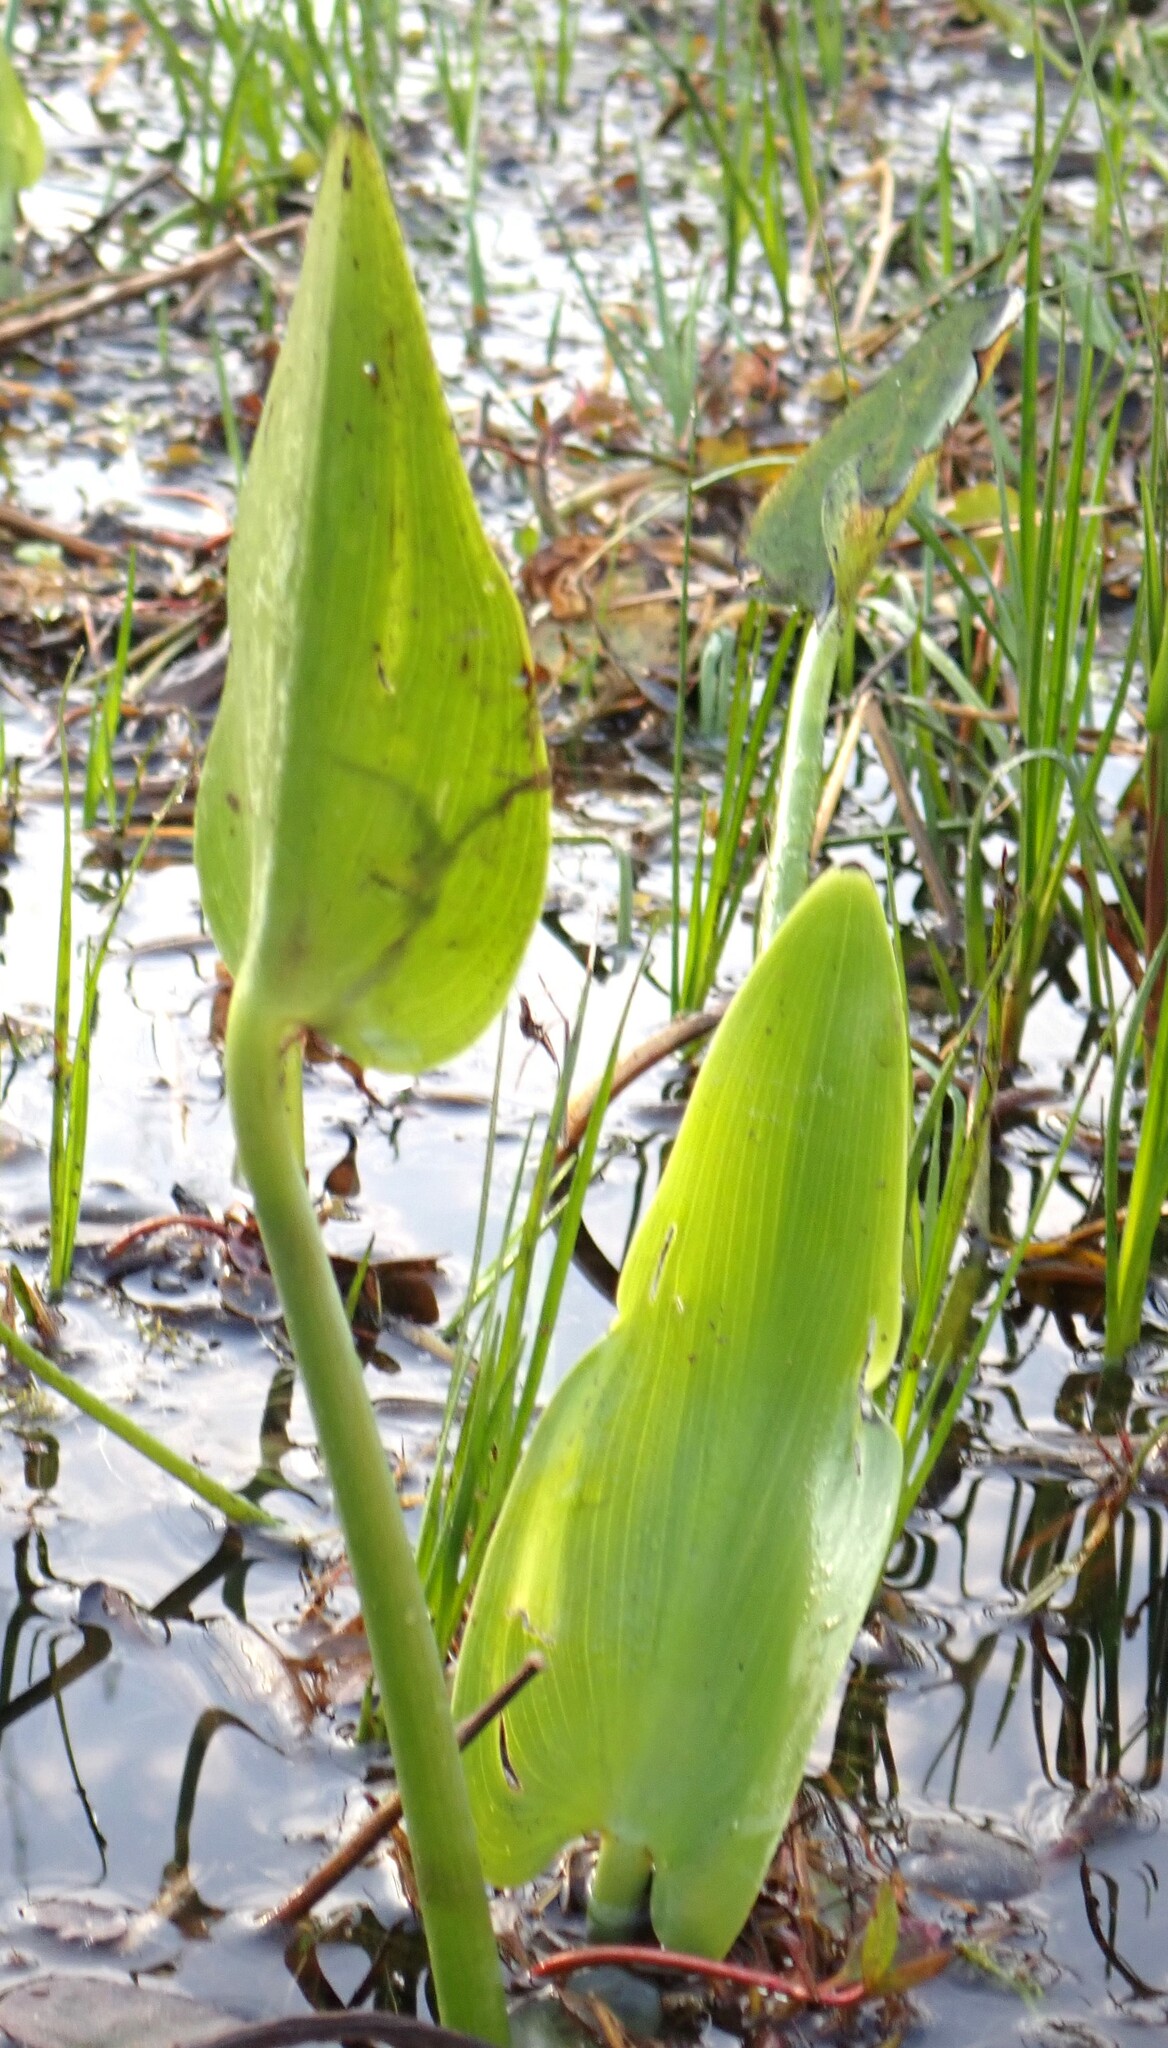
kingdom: Plantae
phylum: Tracheophyta
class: Liliopsida
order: Commelinales
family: Pontederiaceae
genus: Pontederia
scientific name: Pontederia cordata
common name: Pickerelweed
